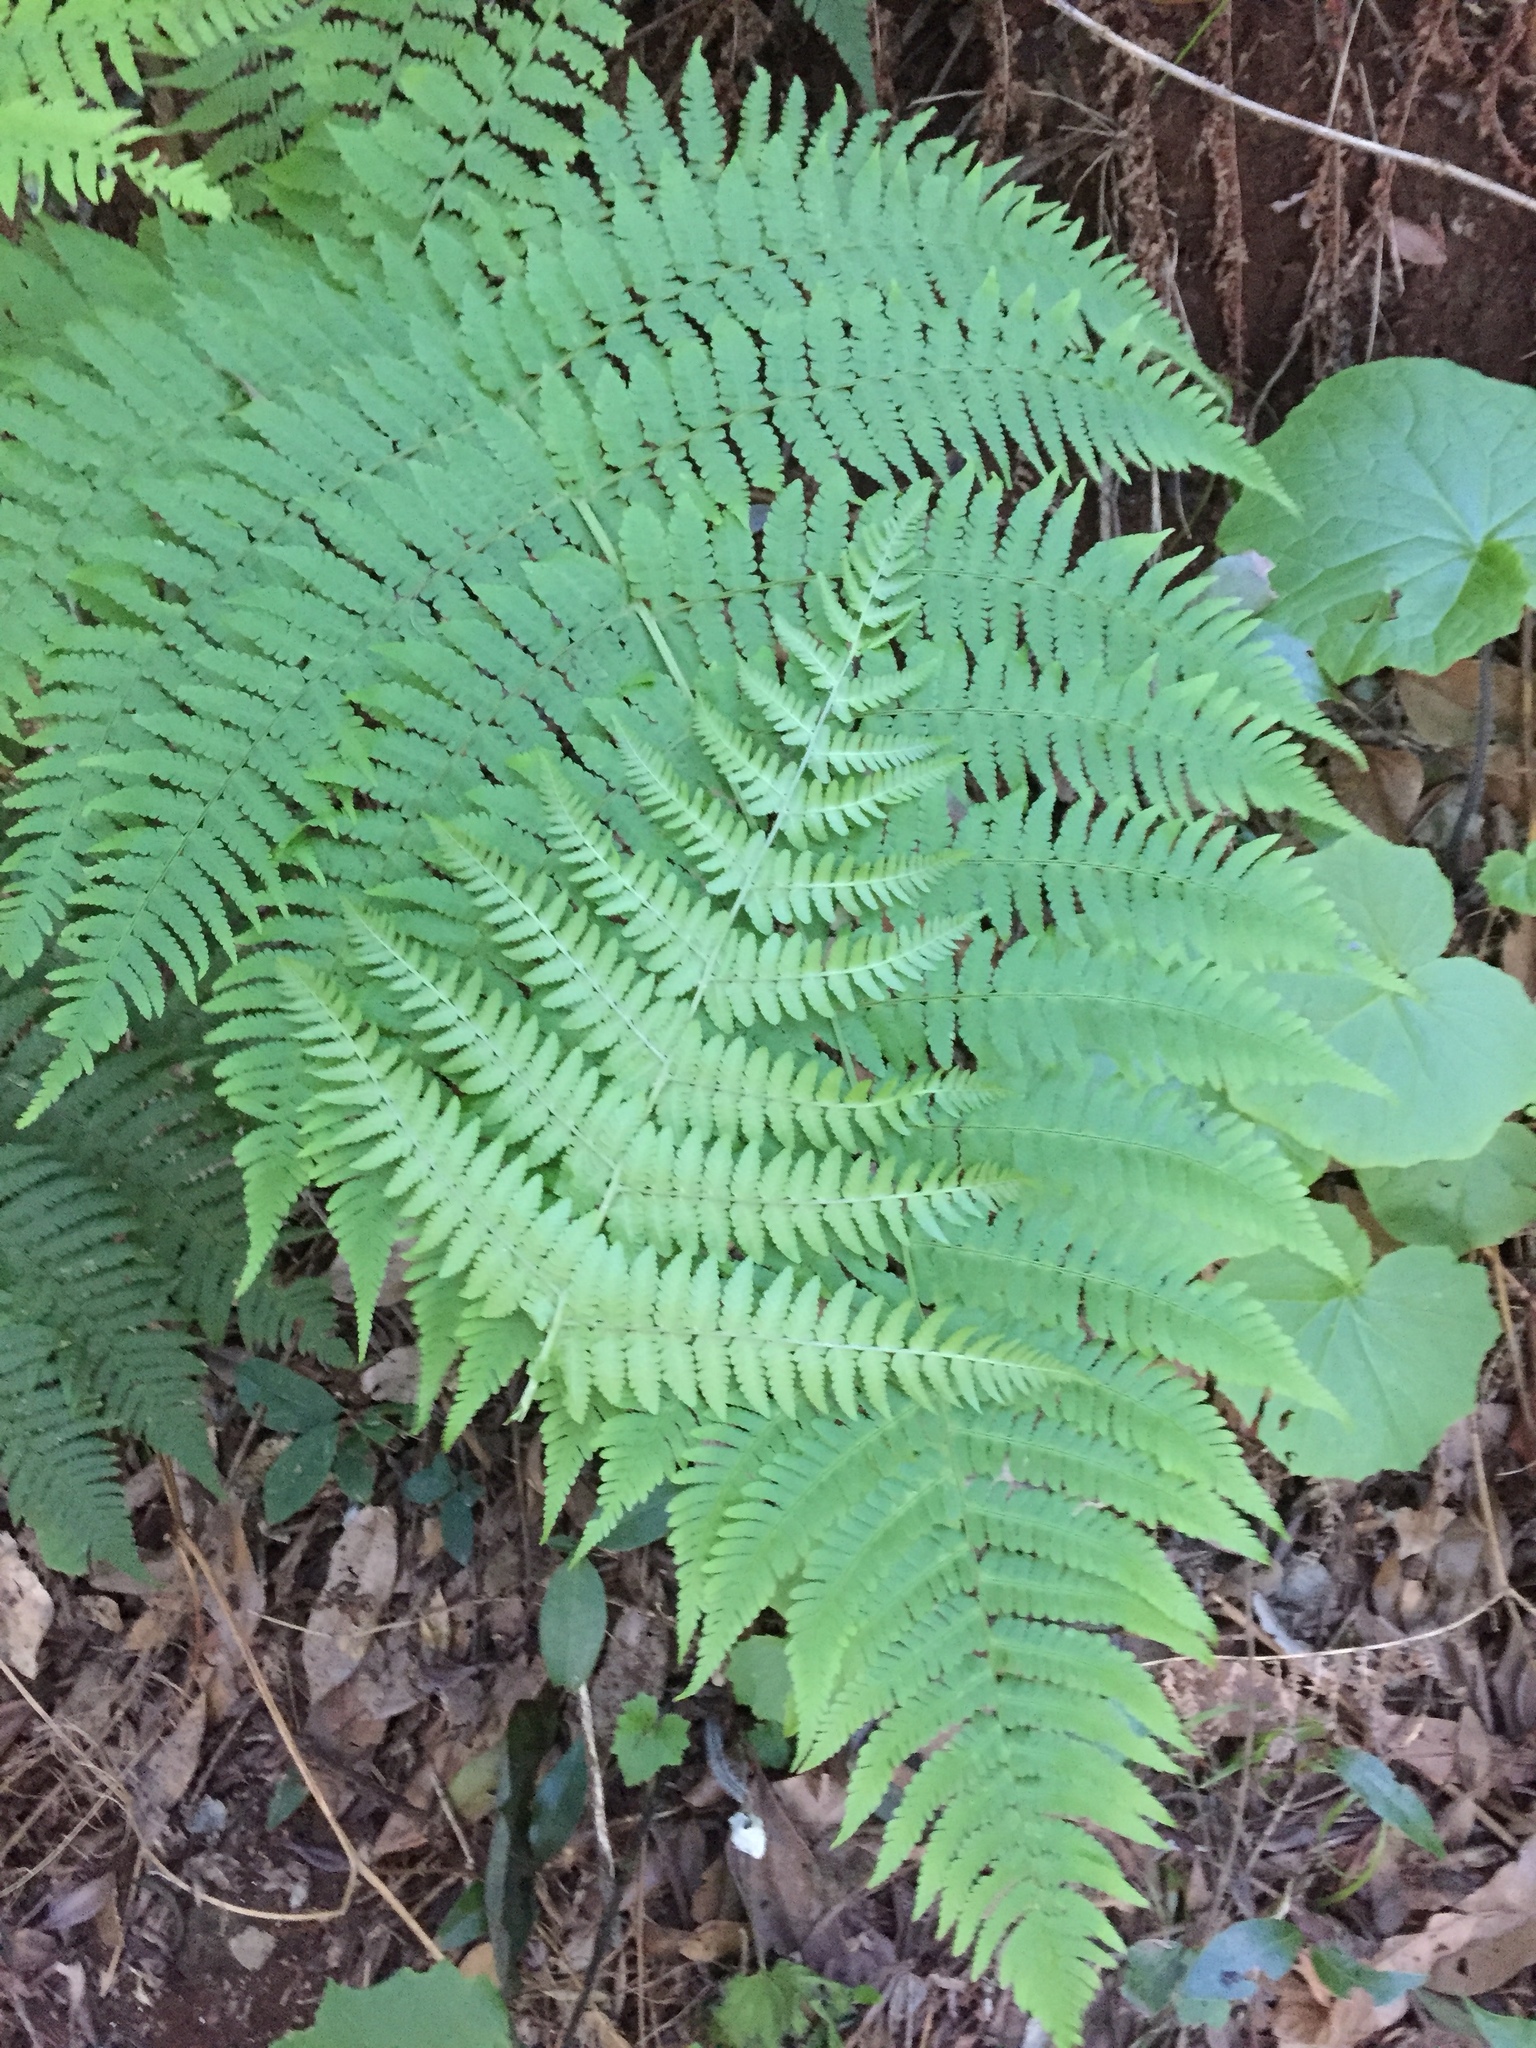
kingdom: Plantae
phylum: Tracheophyta
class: Polypodiopsida
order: Polypodiales
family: Dryopteridaceae
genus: Dryopteris
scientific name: Dryopteris oligodonta
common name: Canarian male-fern
